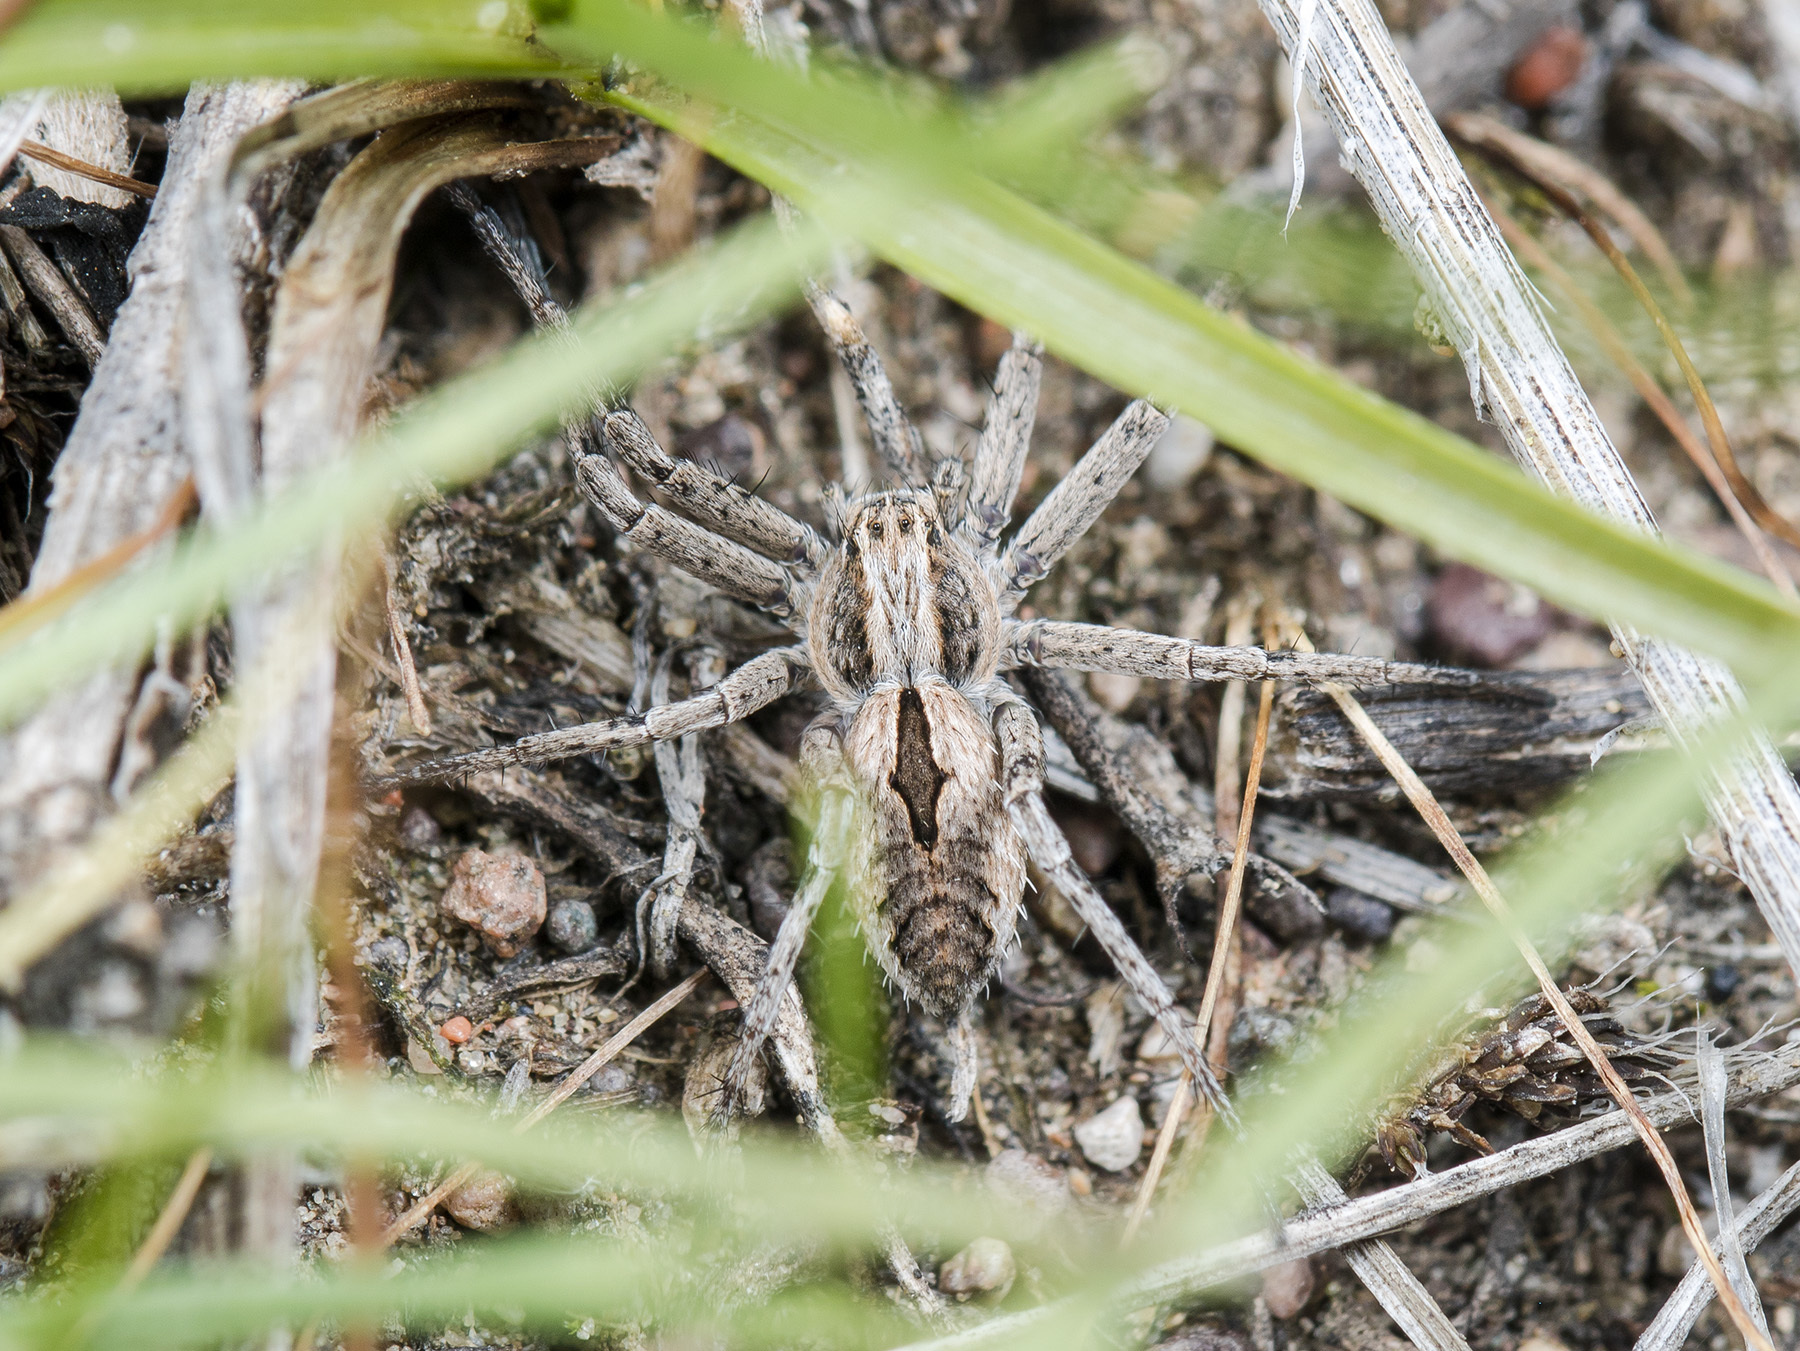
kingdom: Animalia
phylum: Arthropoda
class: Arachnida
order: Araneae
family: Philodromidae
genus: Thanatus
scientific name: Thanatus imbecillus
